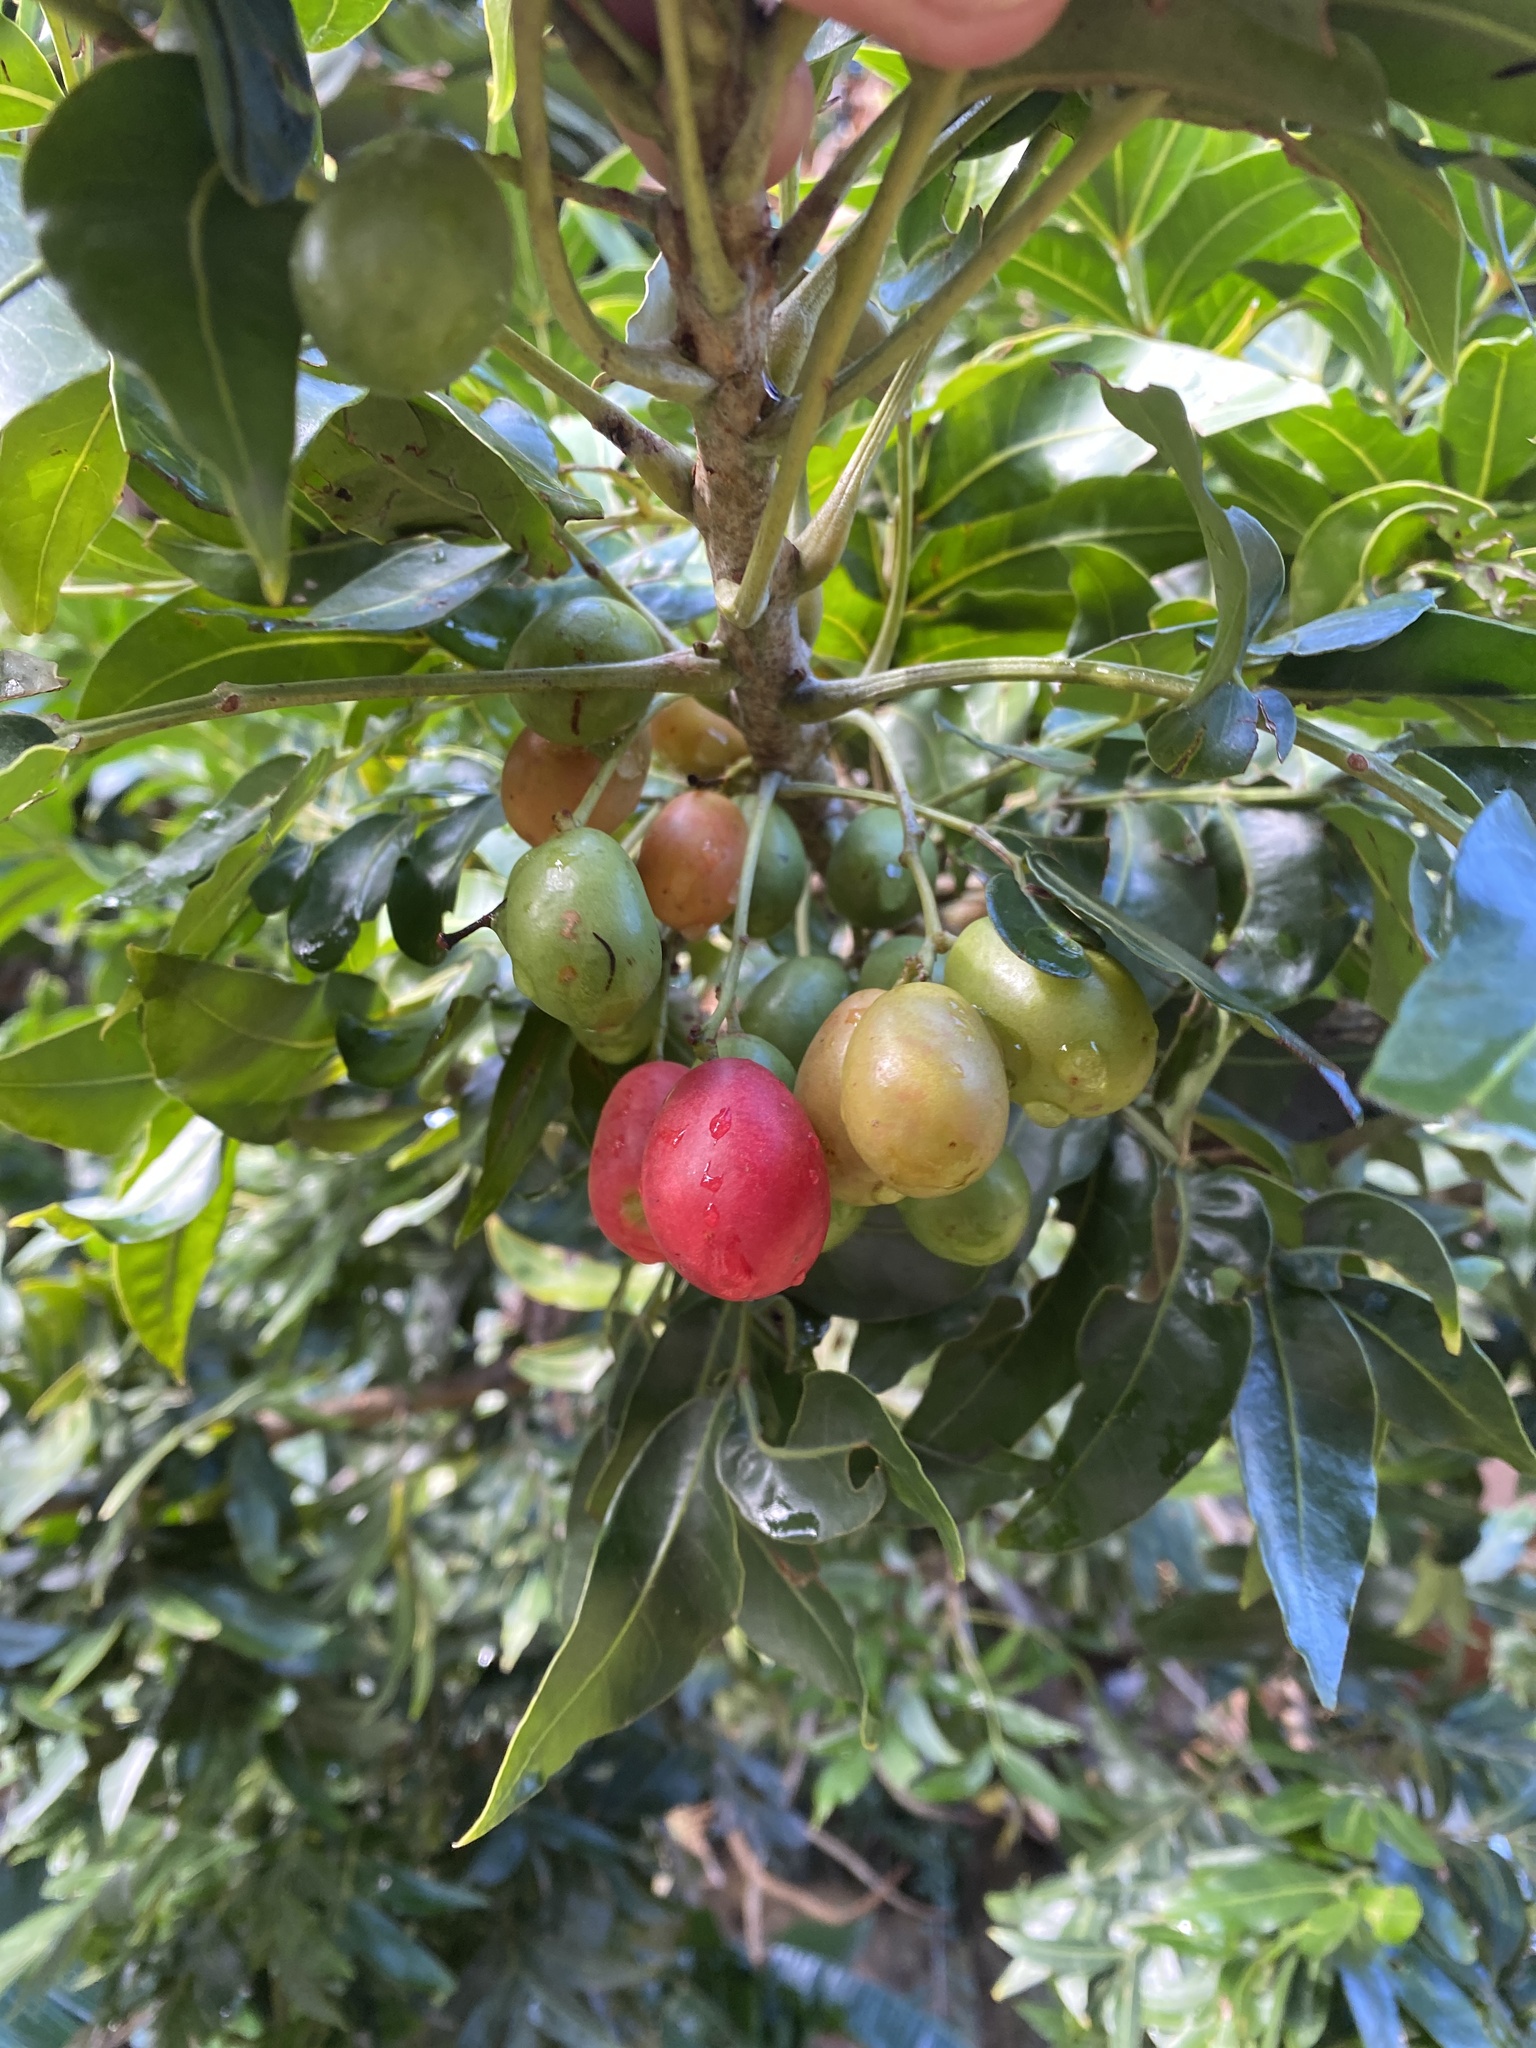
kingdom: Plantae
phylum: Tracheophyta
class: Magnoliopsida
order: Sapindales
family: Anacardiaceae
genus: Harpephyllum
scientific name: Harpephyllum caffrum
